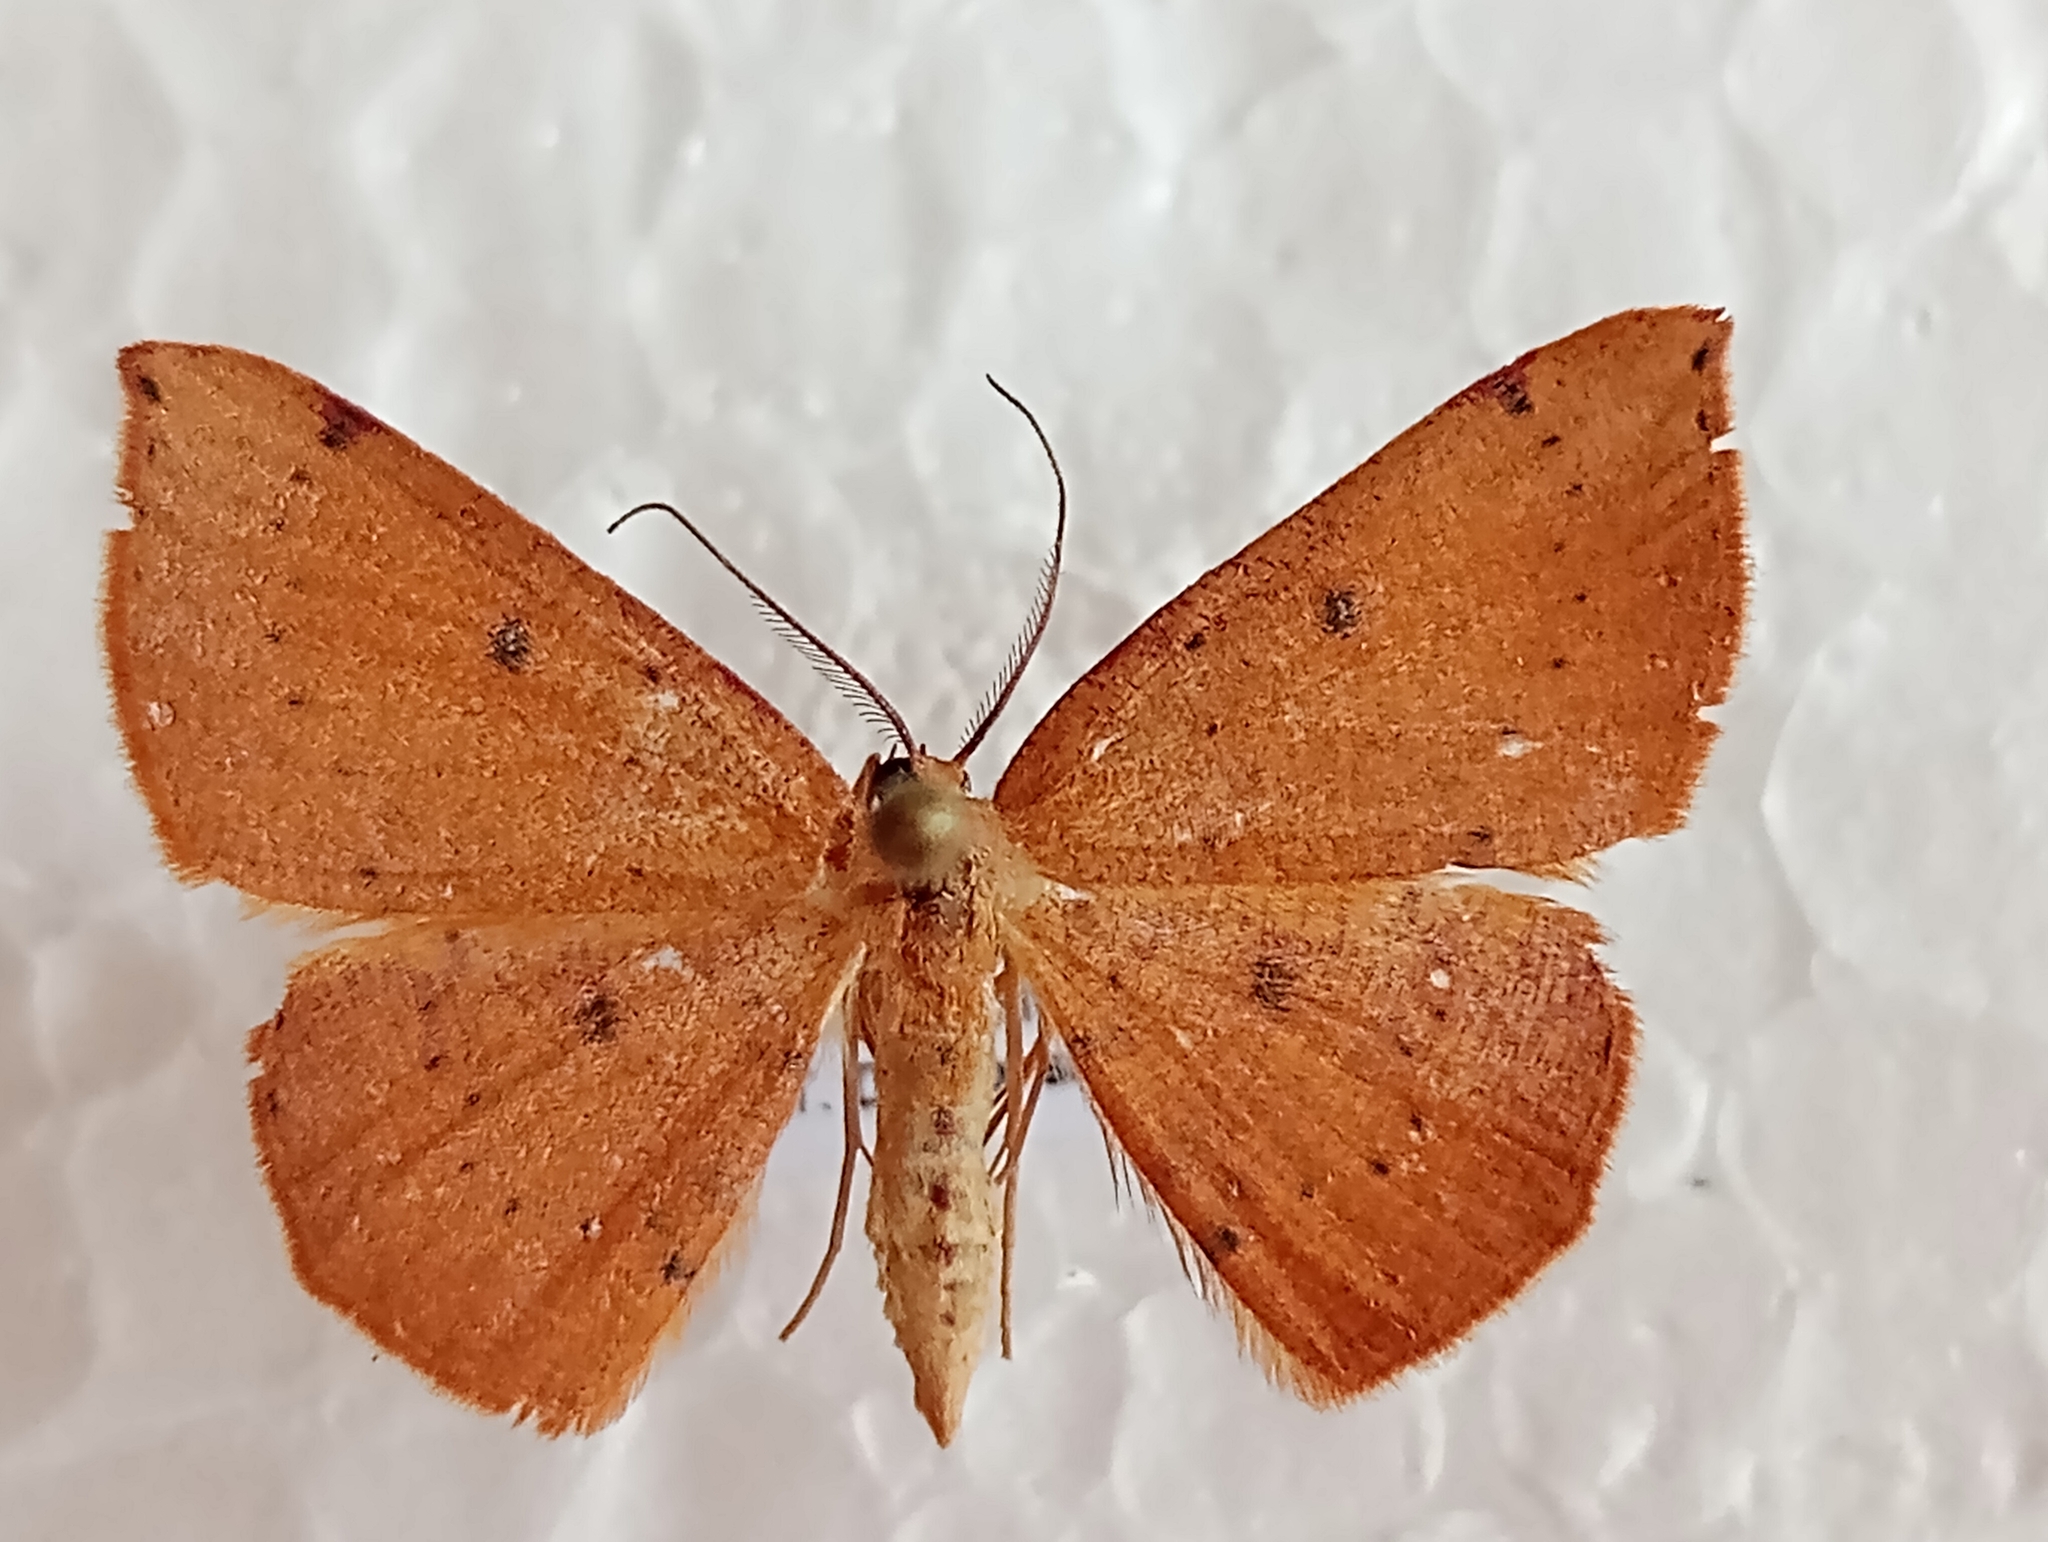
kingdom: Animalia
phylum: Arthropoda
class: Insecta
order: Lepidoptera
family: Geometridae
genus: Cyclophora
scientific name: Cyclophora puppillaria
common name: Blair's mocha
